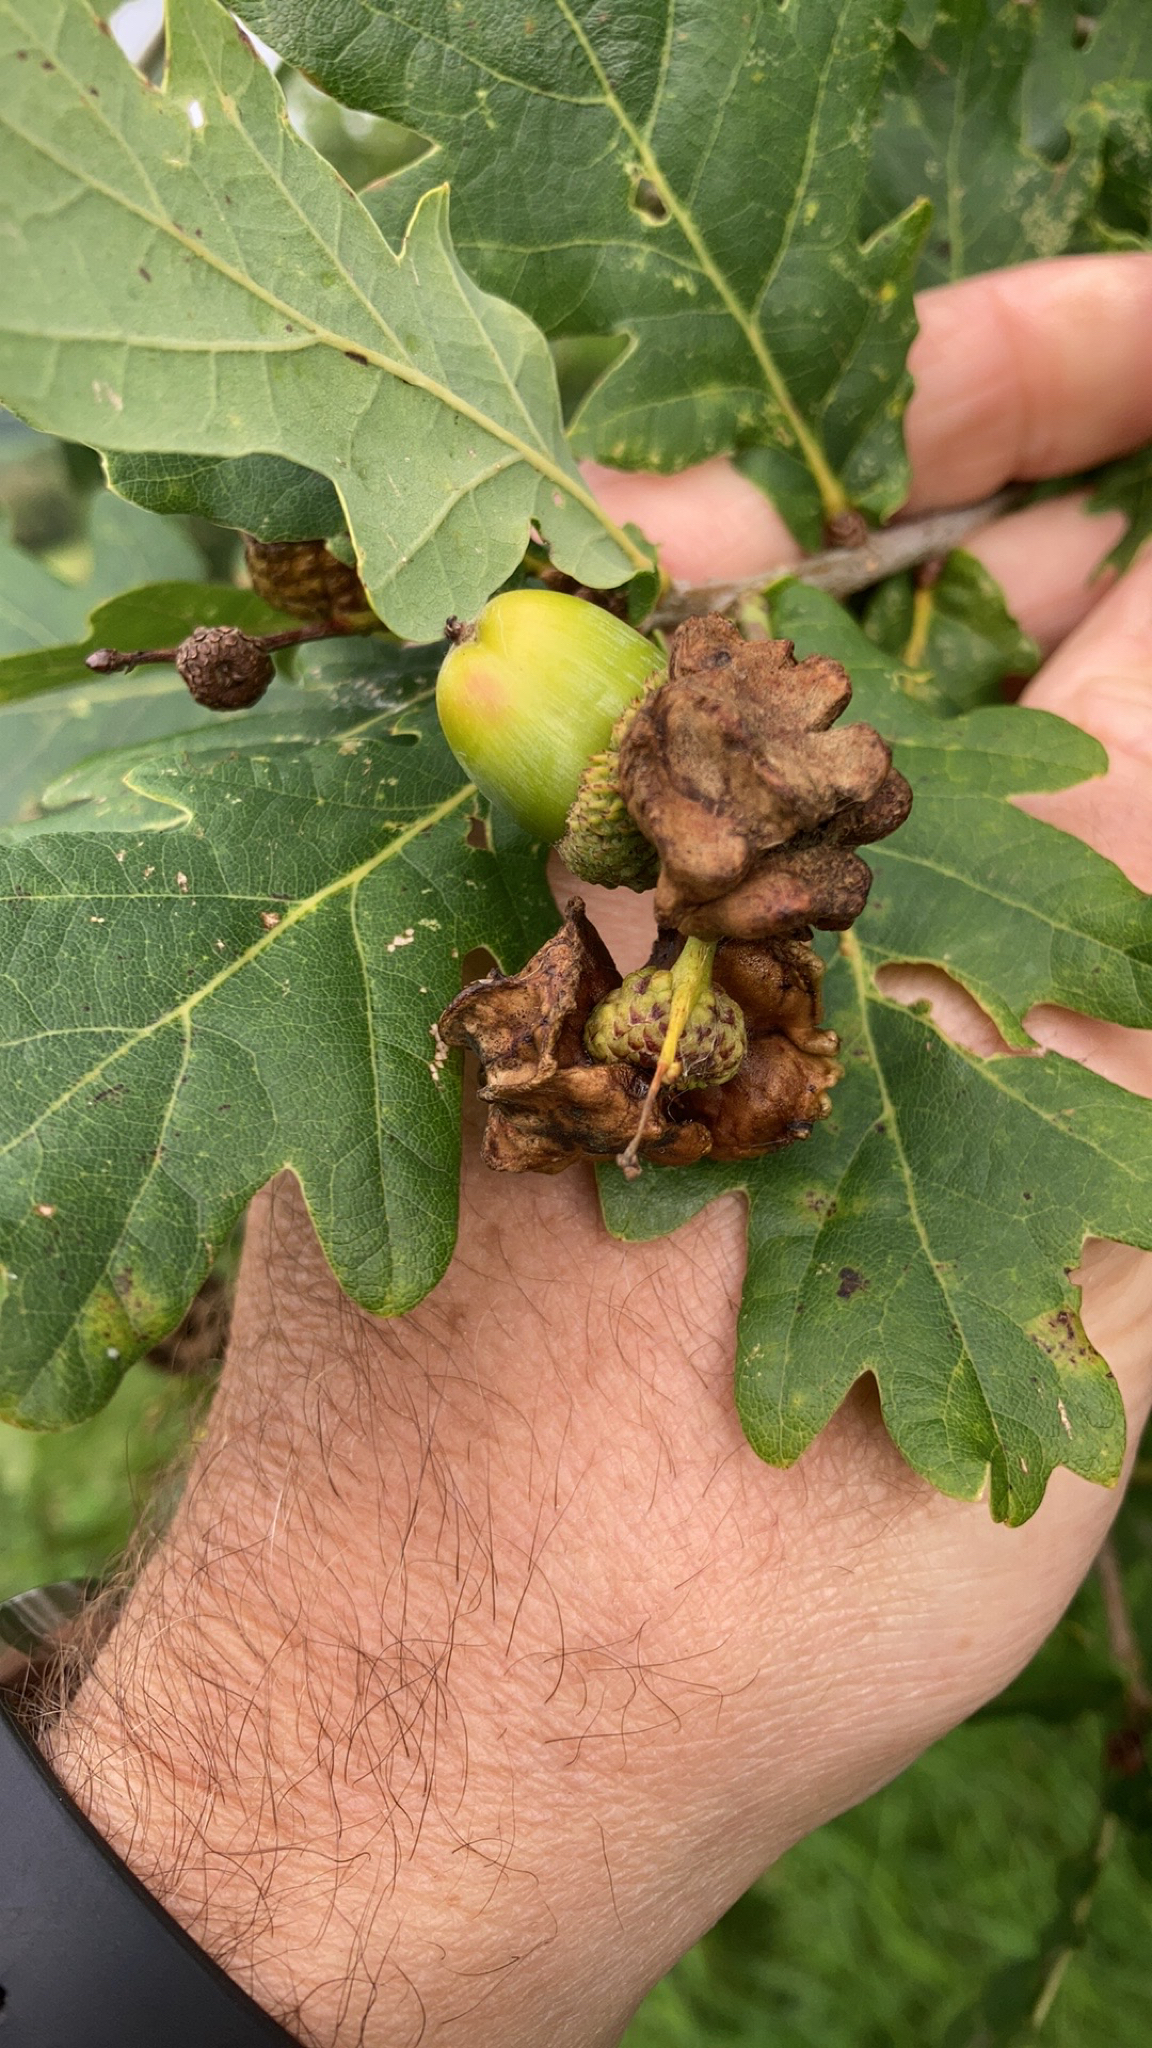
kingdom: Animalia
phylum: Arthropoda
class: Insecta
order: Hymenoptera
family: Cynipidae
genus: Andricus
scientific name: Andricus quercuscalicis
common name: Knopper gall
